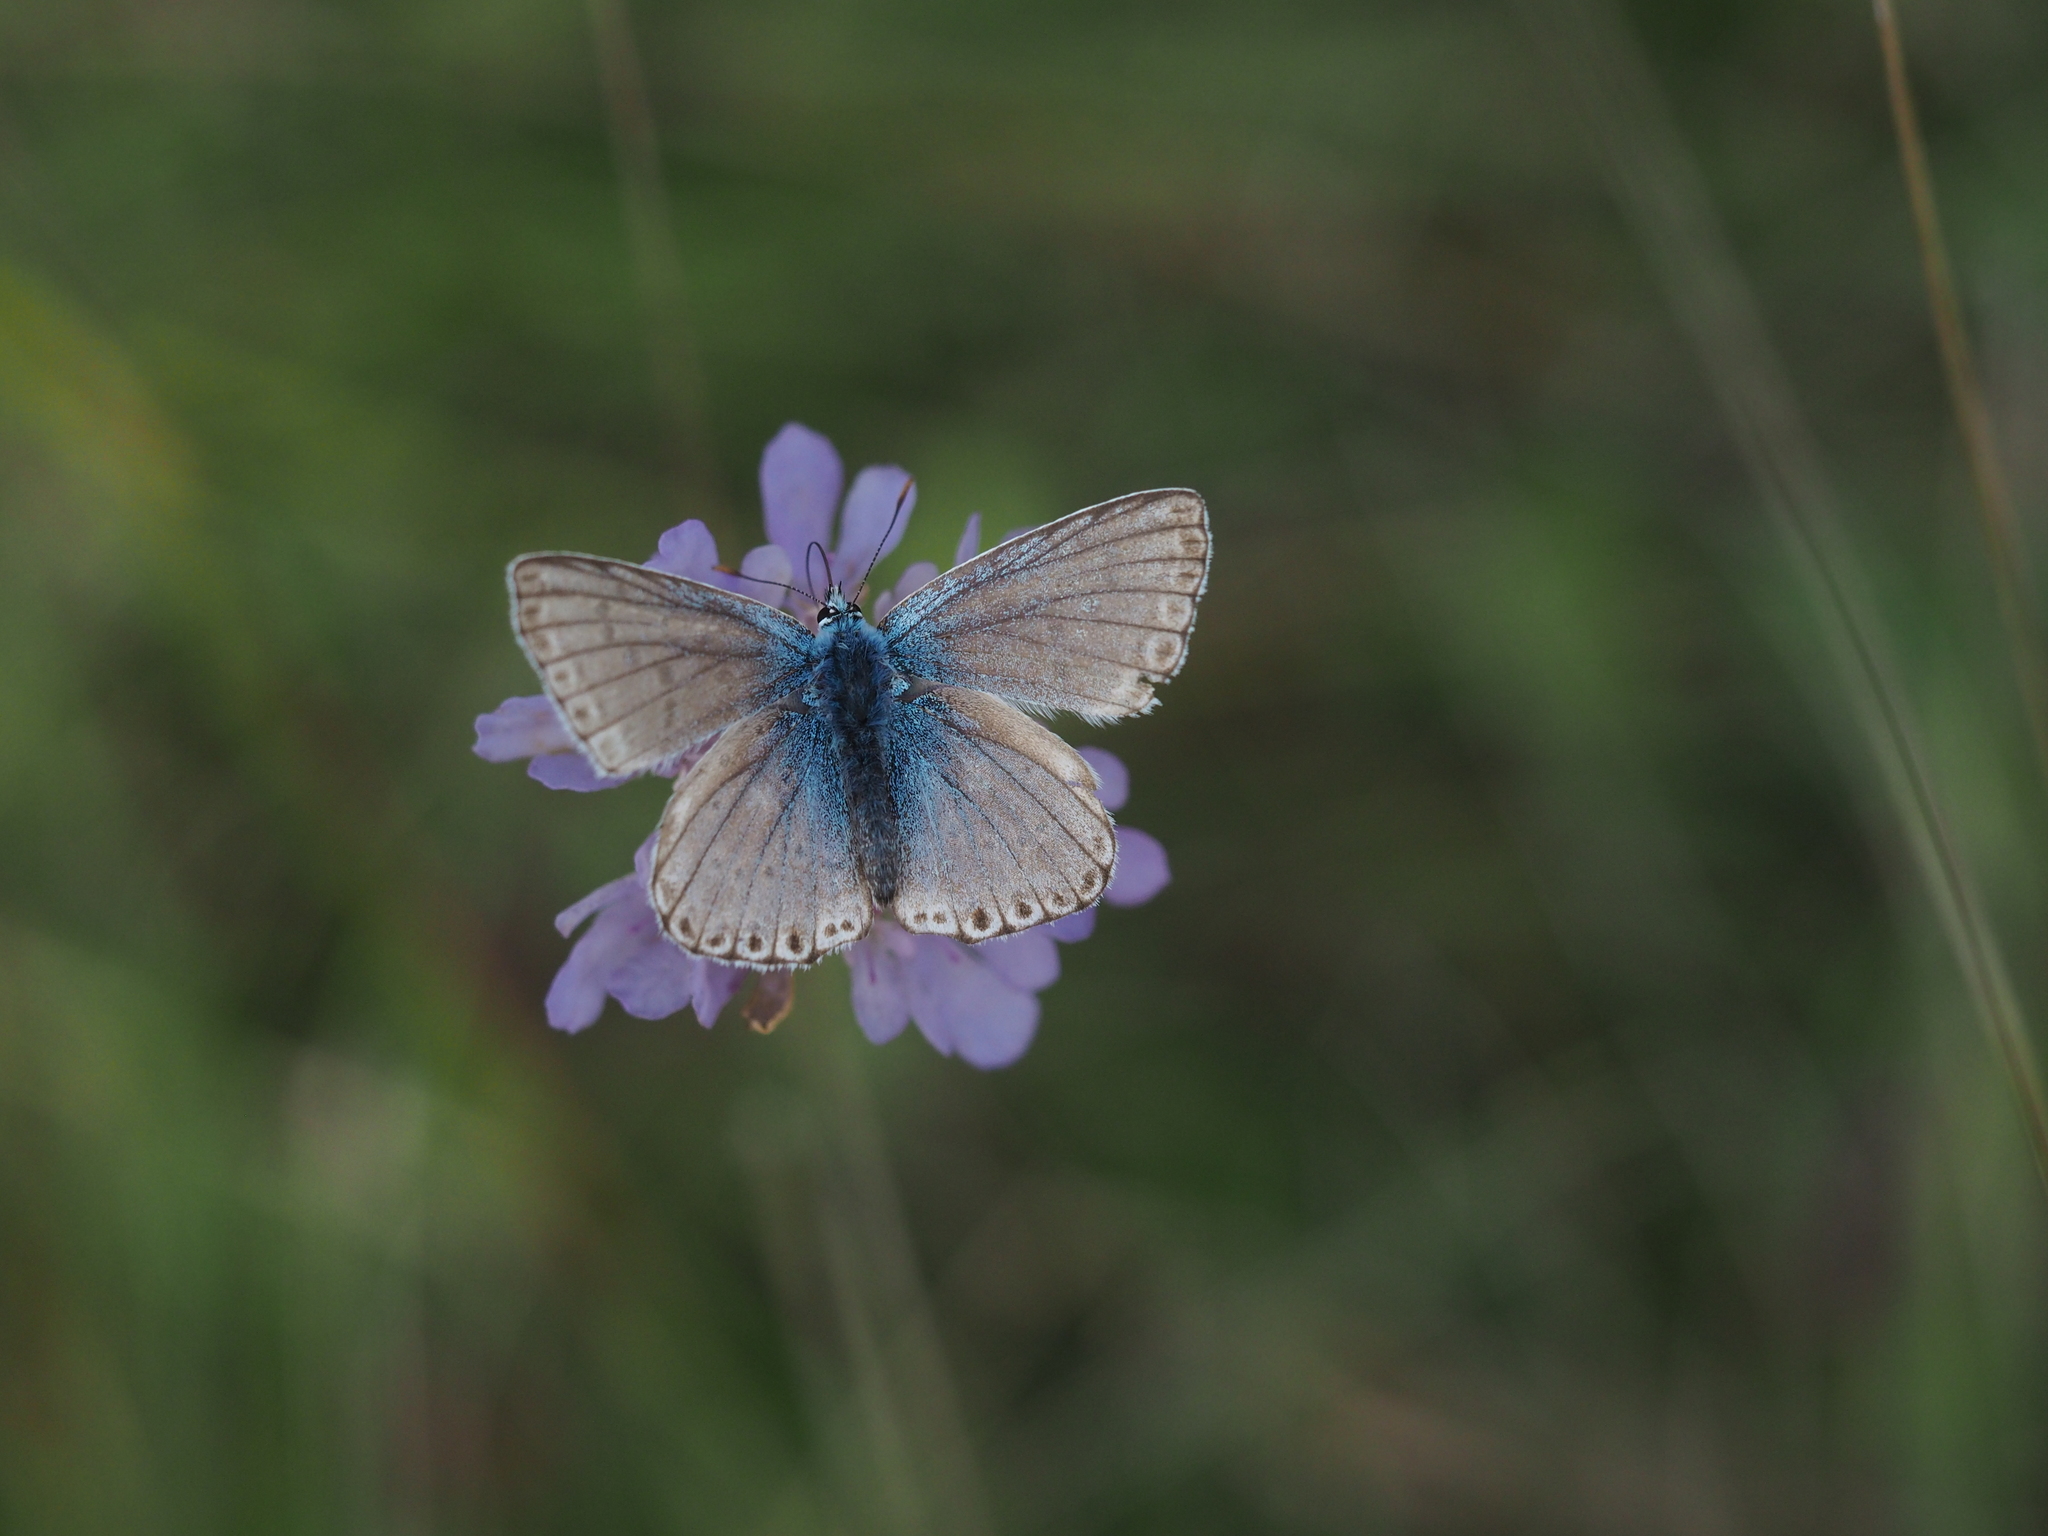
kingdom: Animalia
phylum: Arthropoda
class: Insecta
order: Lepidoptera
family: Lycaenidae
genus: Lysandra
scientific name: Lysandra coridon
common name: Chalkhill blue
